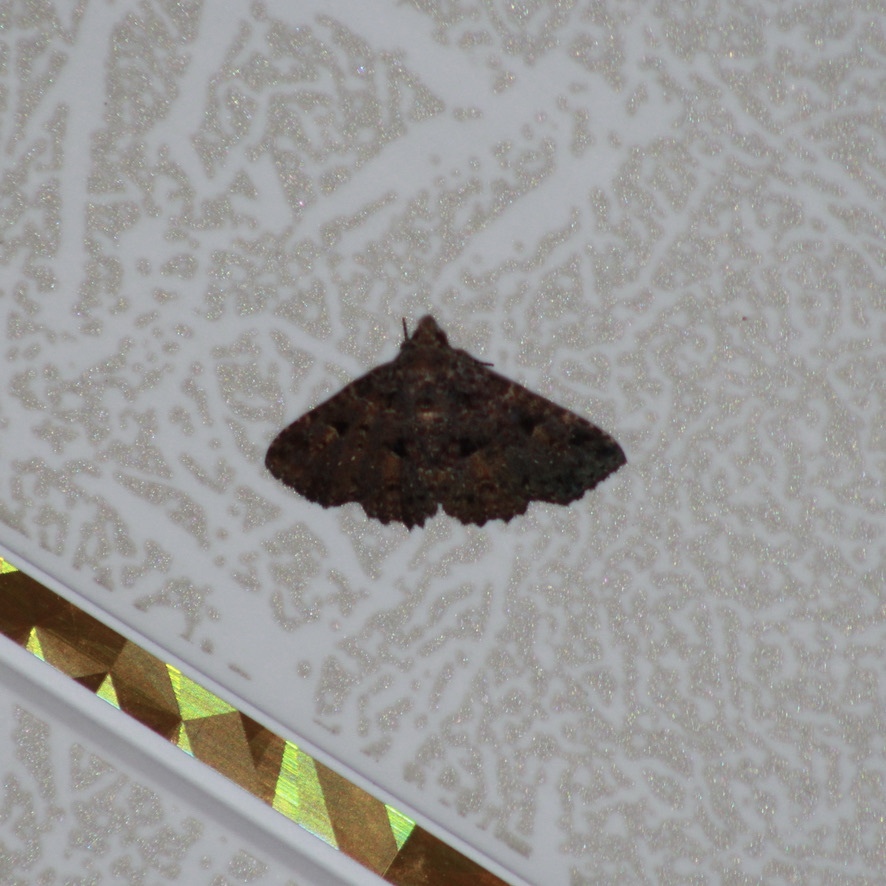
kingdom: Animalia
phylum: Arthropoda
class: Insecta
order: Lepidoptera
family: Erebidae
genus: Metalectra
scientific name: Metalectra praecisalis
